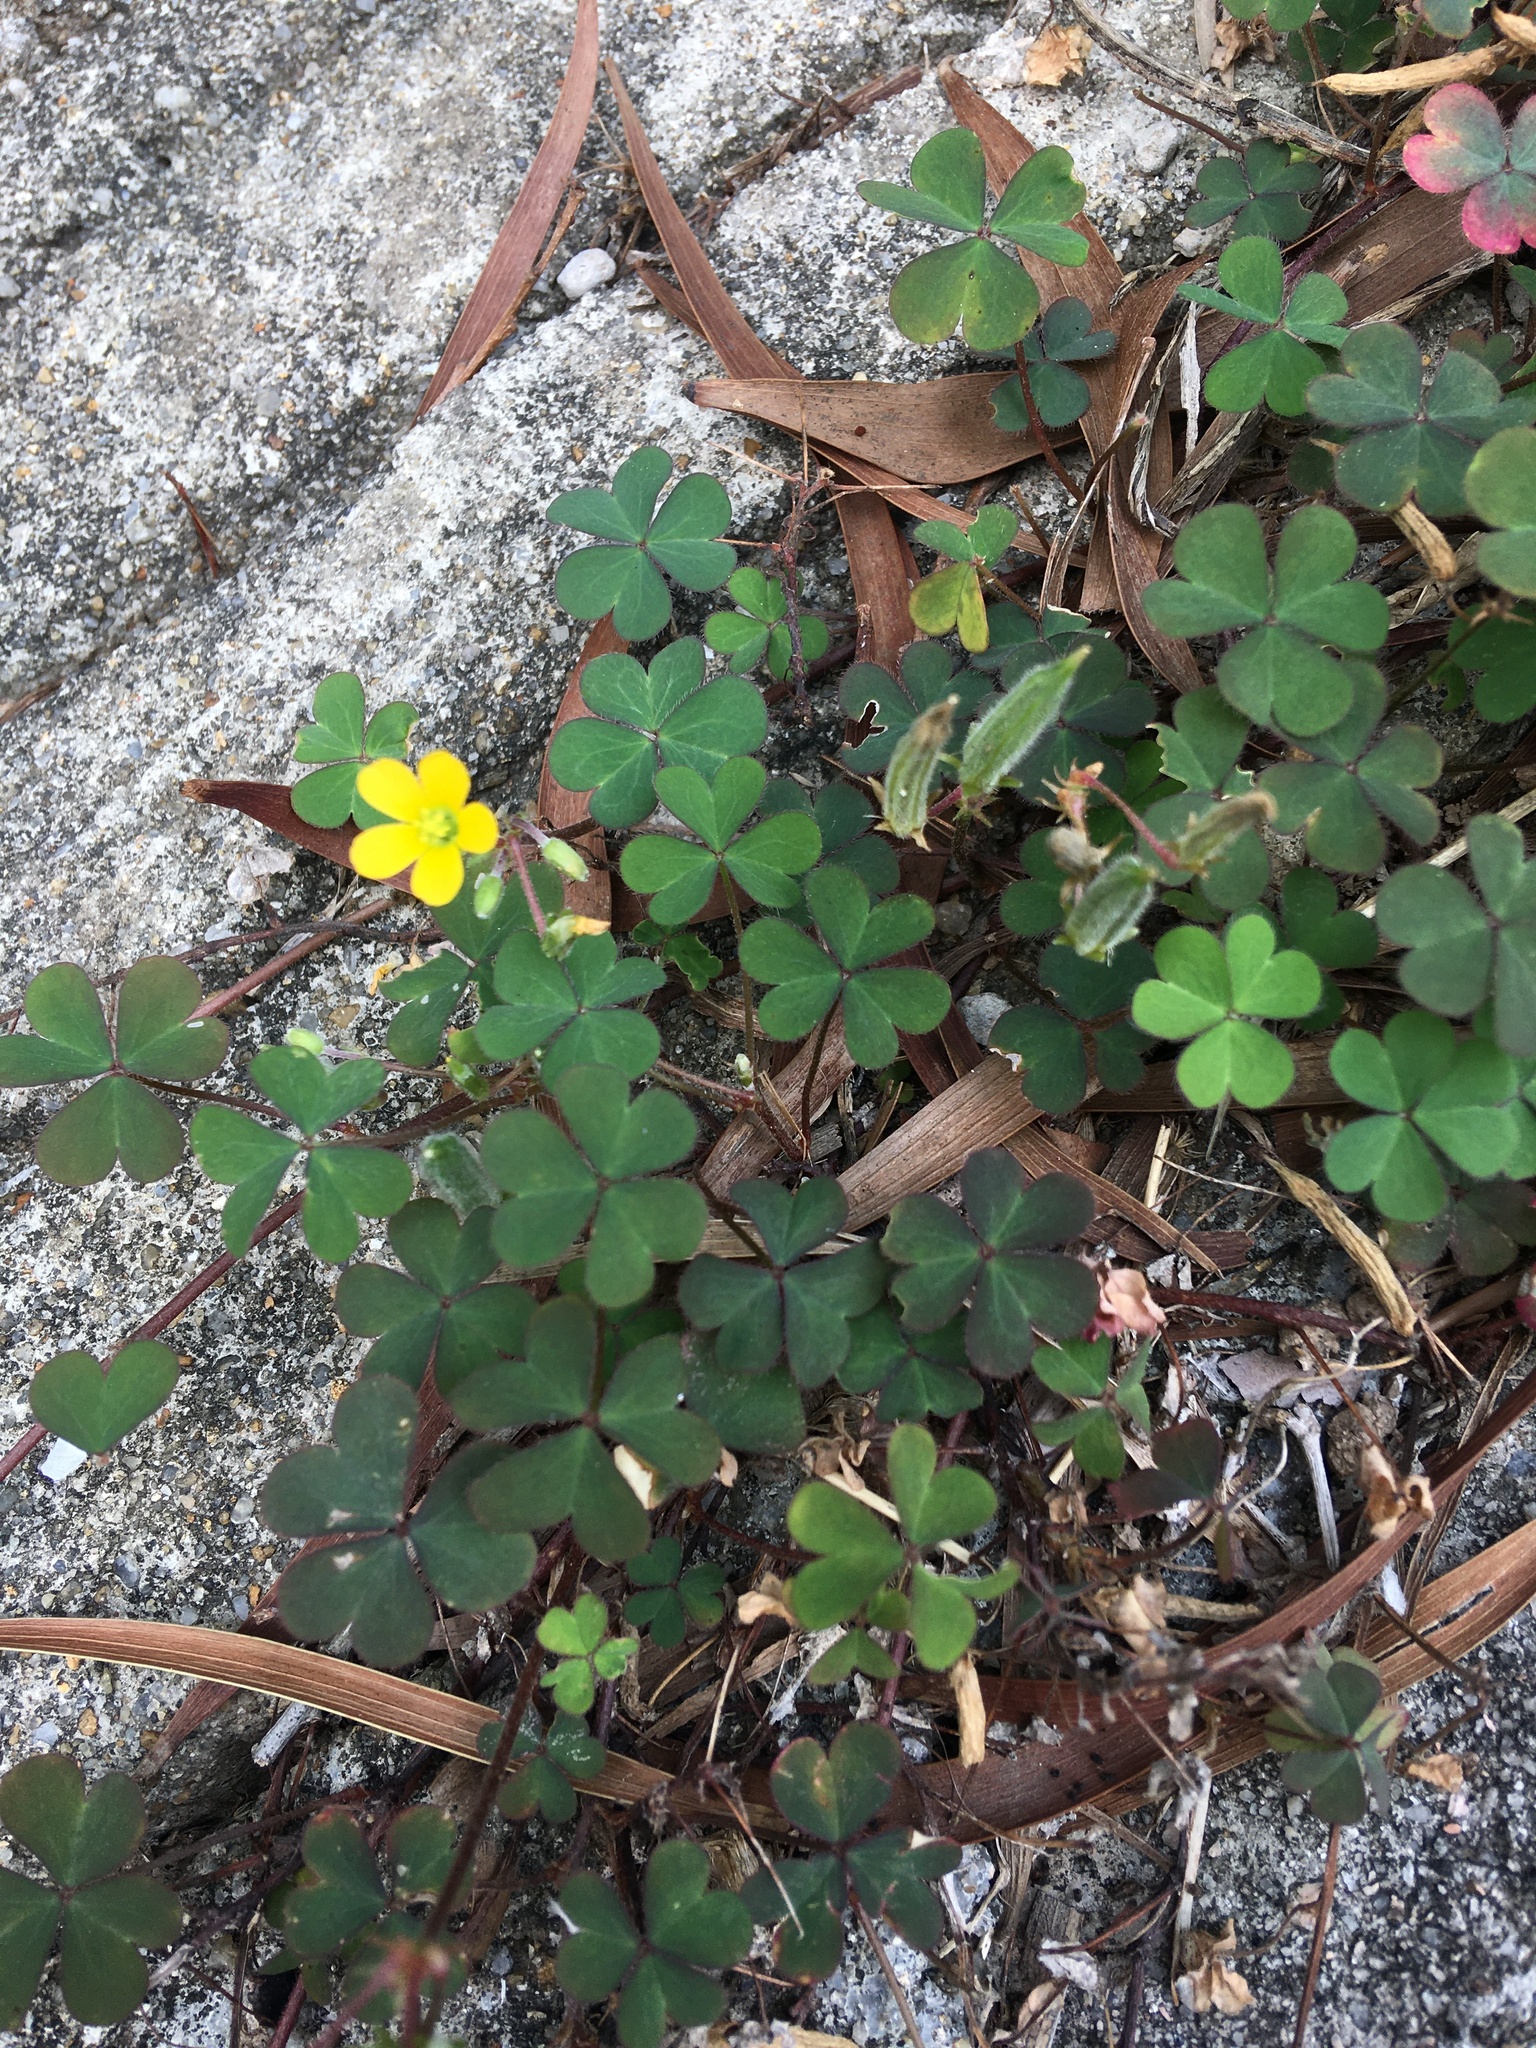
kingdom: Plantae
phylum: Tracheophyta
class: Magnoliopsida
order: Oxalidales
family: Oxalidaceae
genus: Oxalis
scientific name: Oxalis corniculata
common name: Procumbent yellow-sorrel
